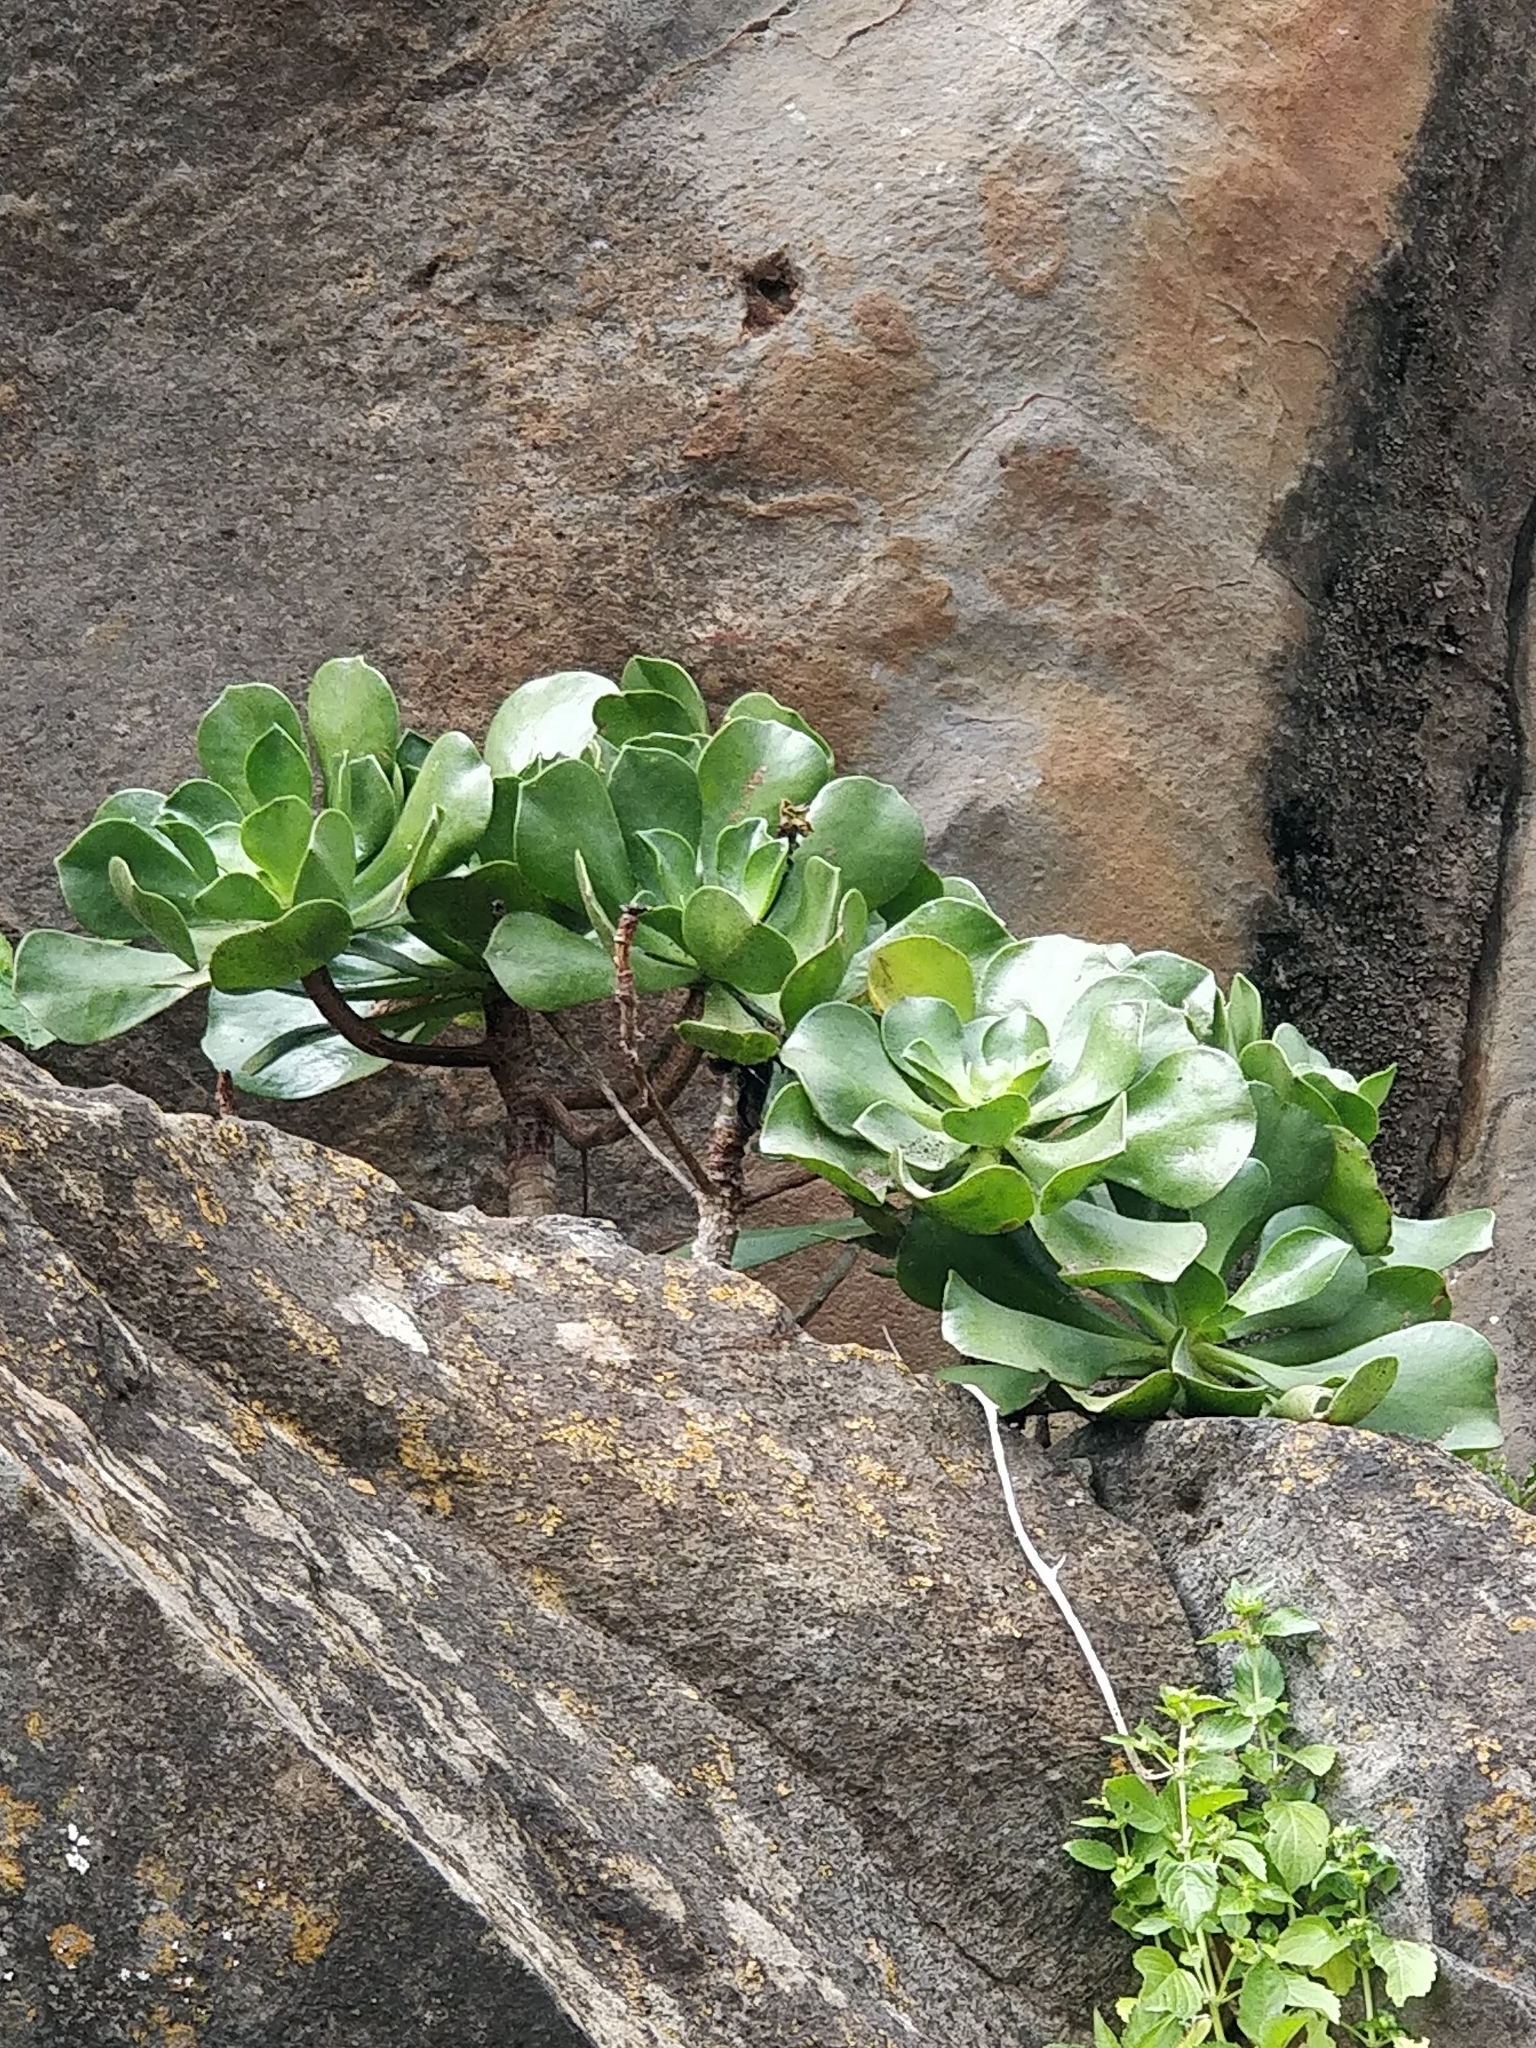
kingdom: Plantae
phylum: Tracheophyta
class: Magnoliopsida
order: Saxifragales
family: Crassulaceae
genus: Aeonium
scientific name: Aeonium glutinosum
